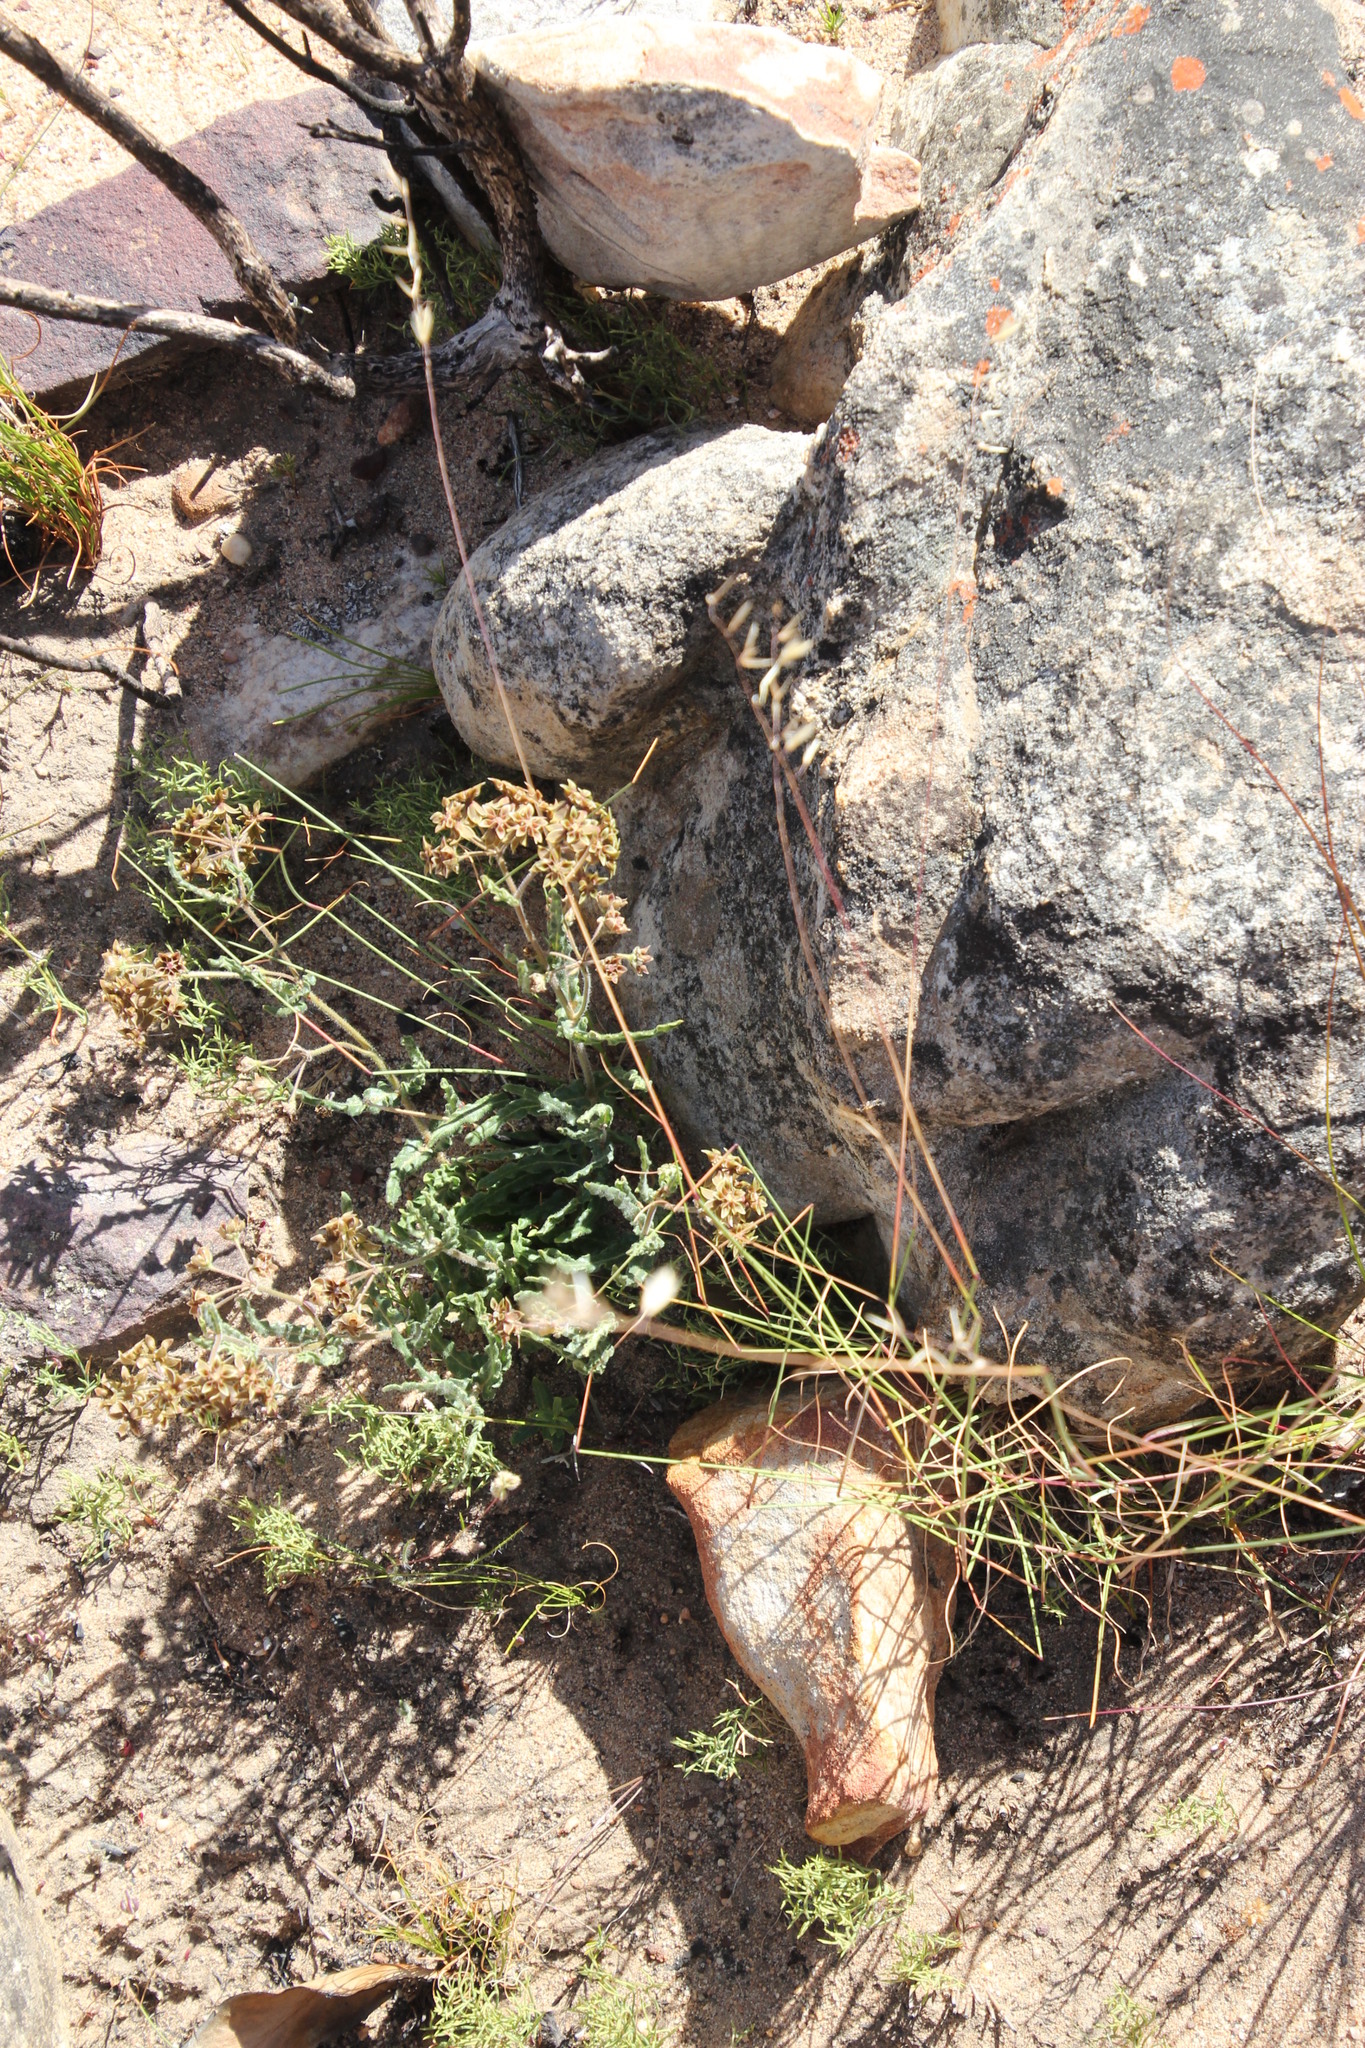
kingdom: Plantae
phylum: Tracheophyta
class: Magnoliopsida
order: Gentianales
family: Apocynaceae
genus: Asclepias
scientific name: Asclepias crispa
